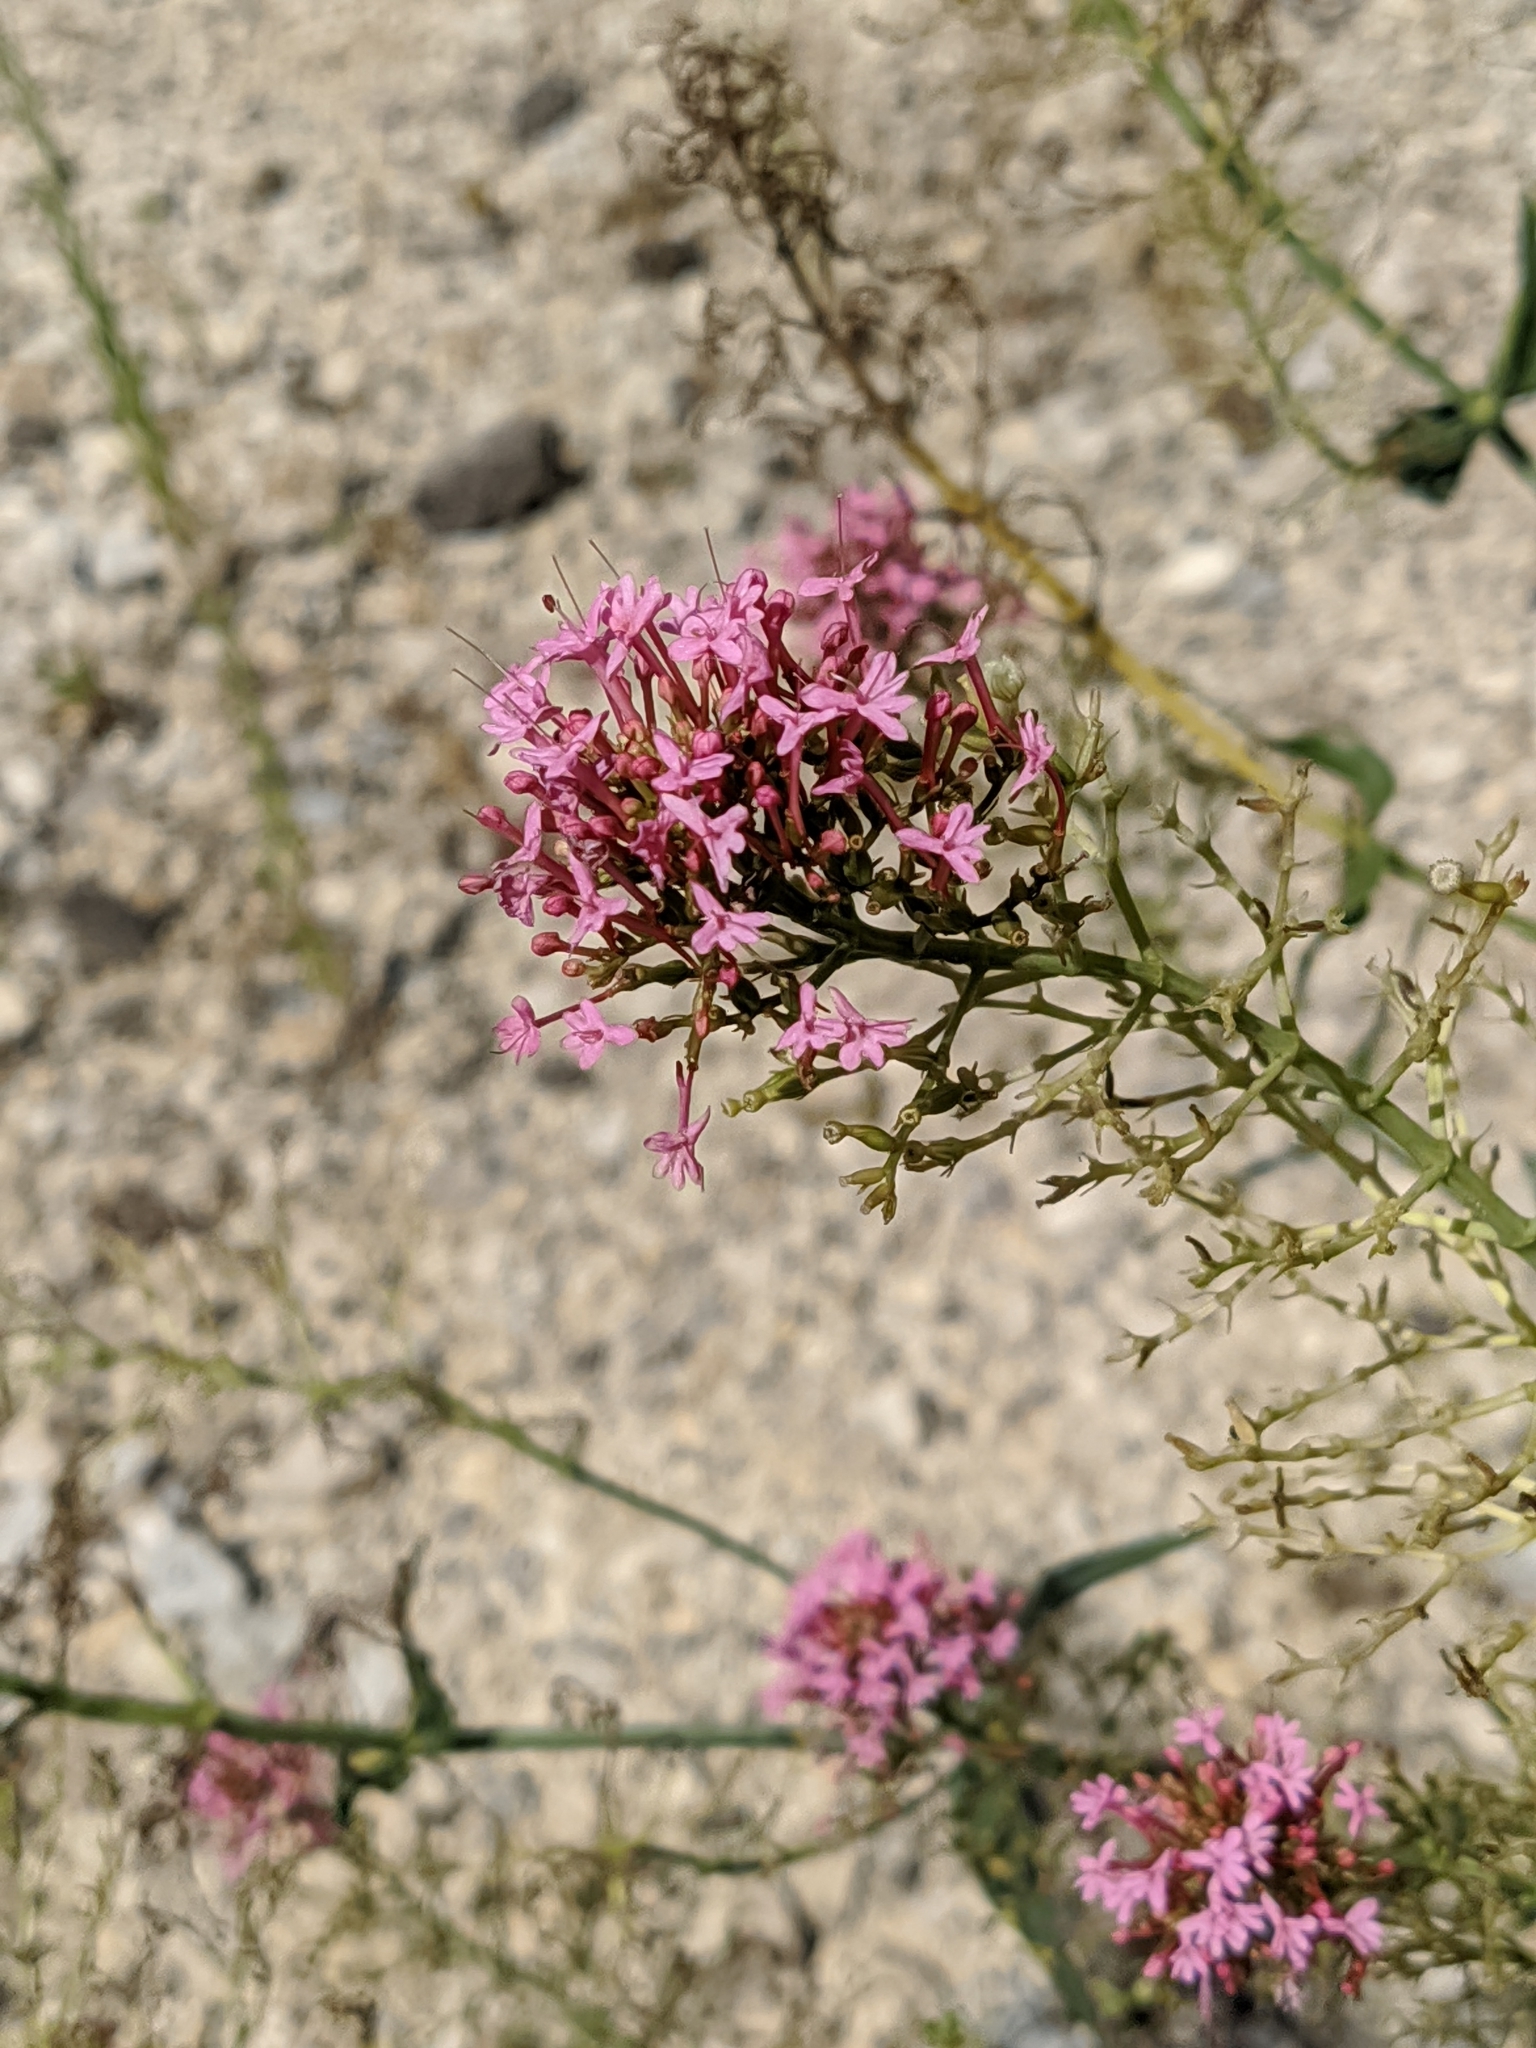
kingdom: Plantae
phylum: Tracheophyta
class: Magnoliopsida
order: Dipsacales
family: Caprifoliaceae
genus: Centranthus
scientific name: Centranthus ruber
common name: Red valerian
